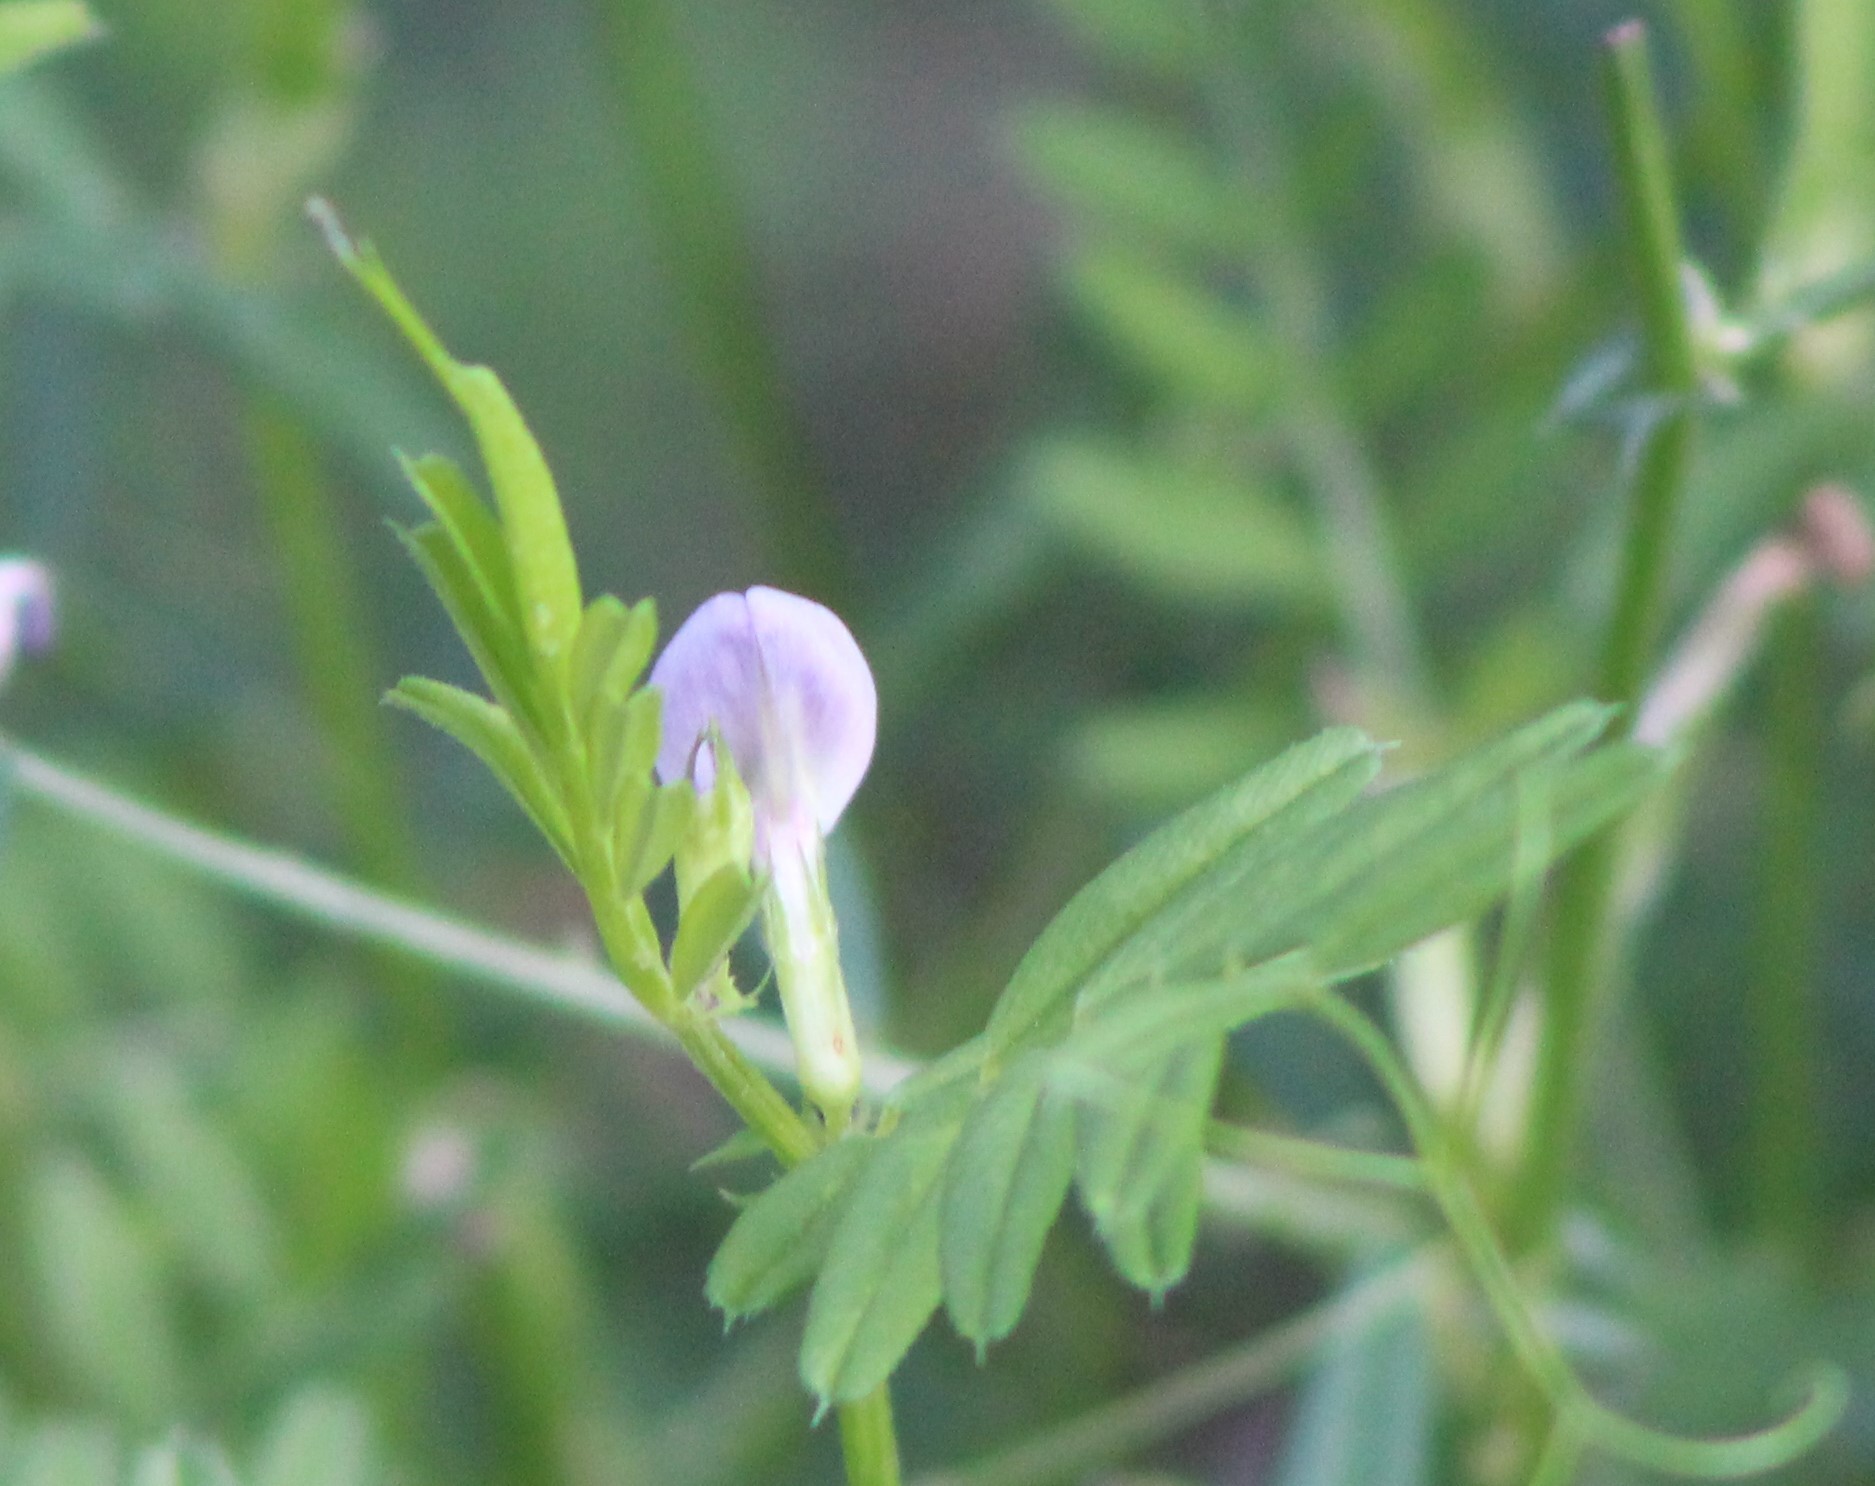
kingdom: Plantae
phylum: Tracheophyta
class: Magnoliopsida
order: Fabales
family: Fabaceae
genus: Vicia
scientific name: Vicia sativa
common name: Garden vetch
